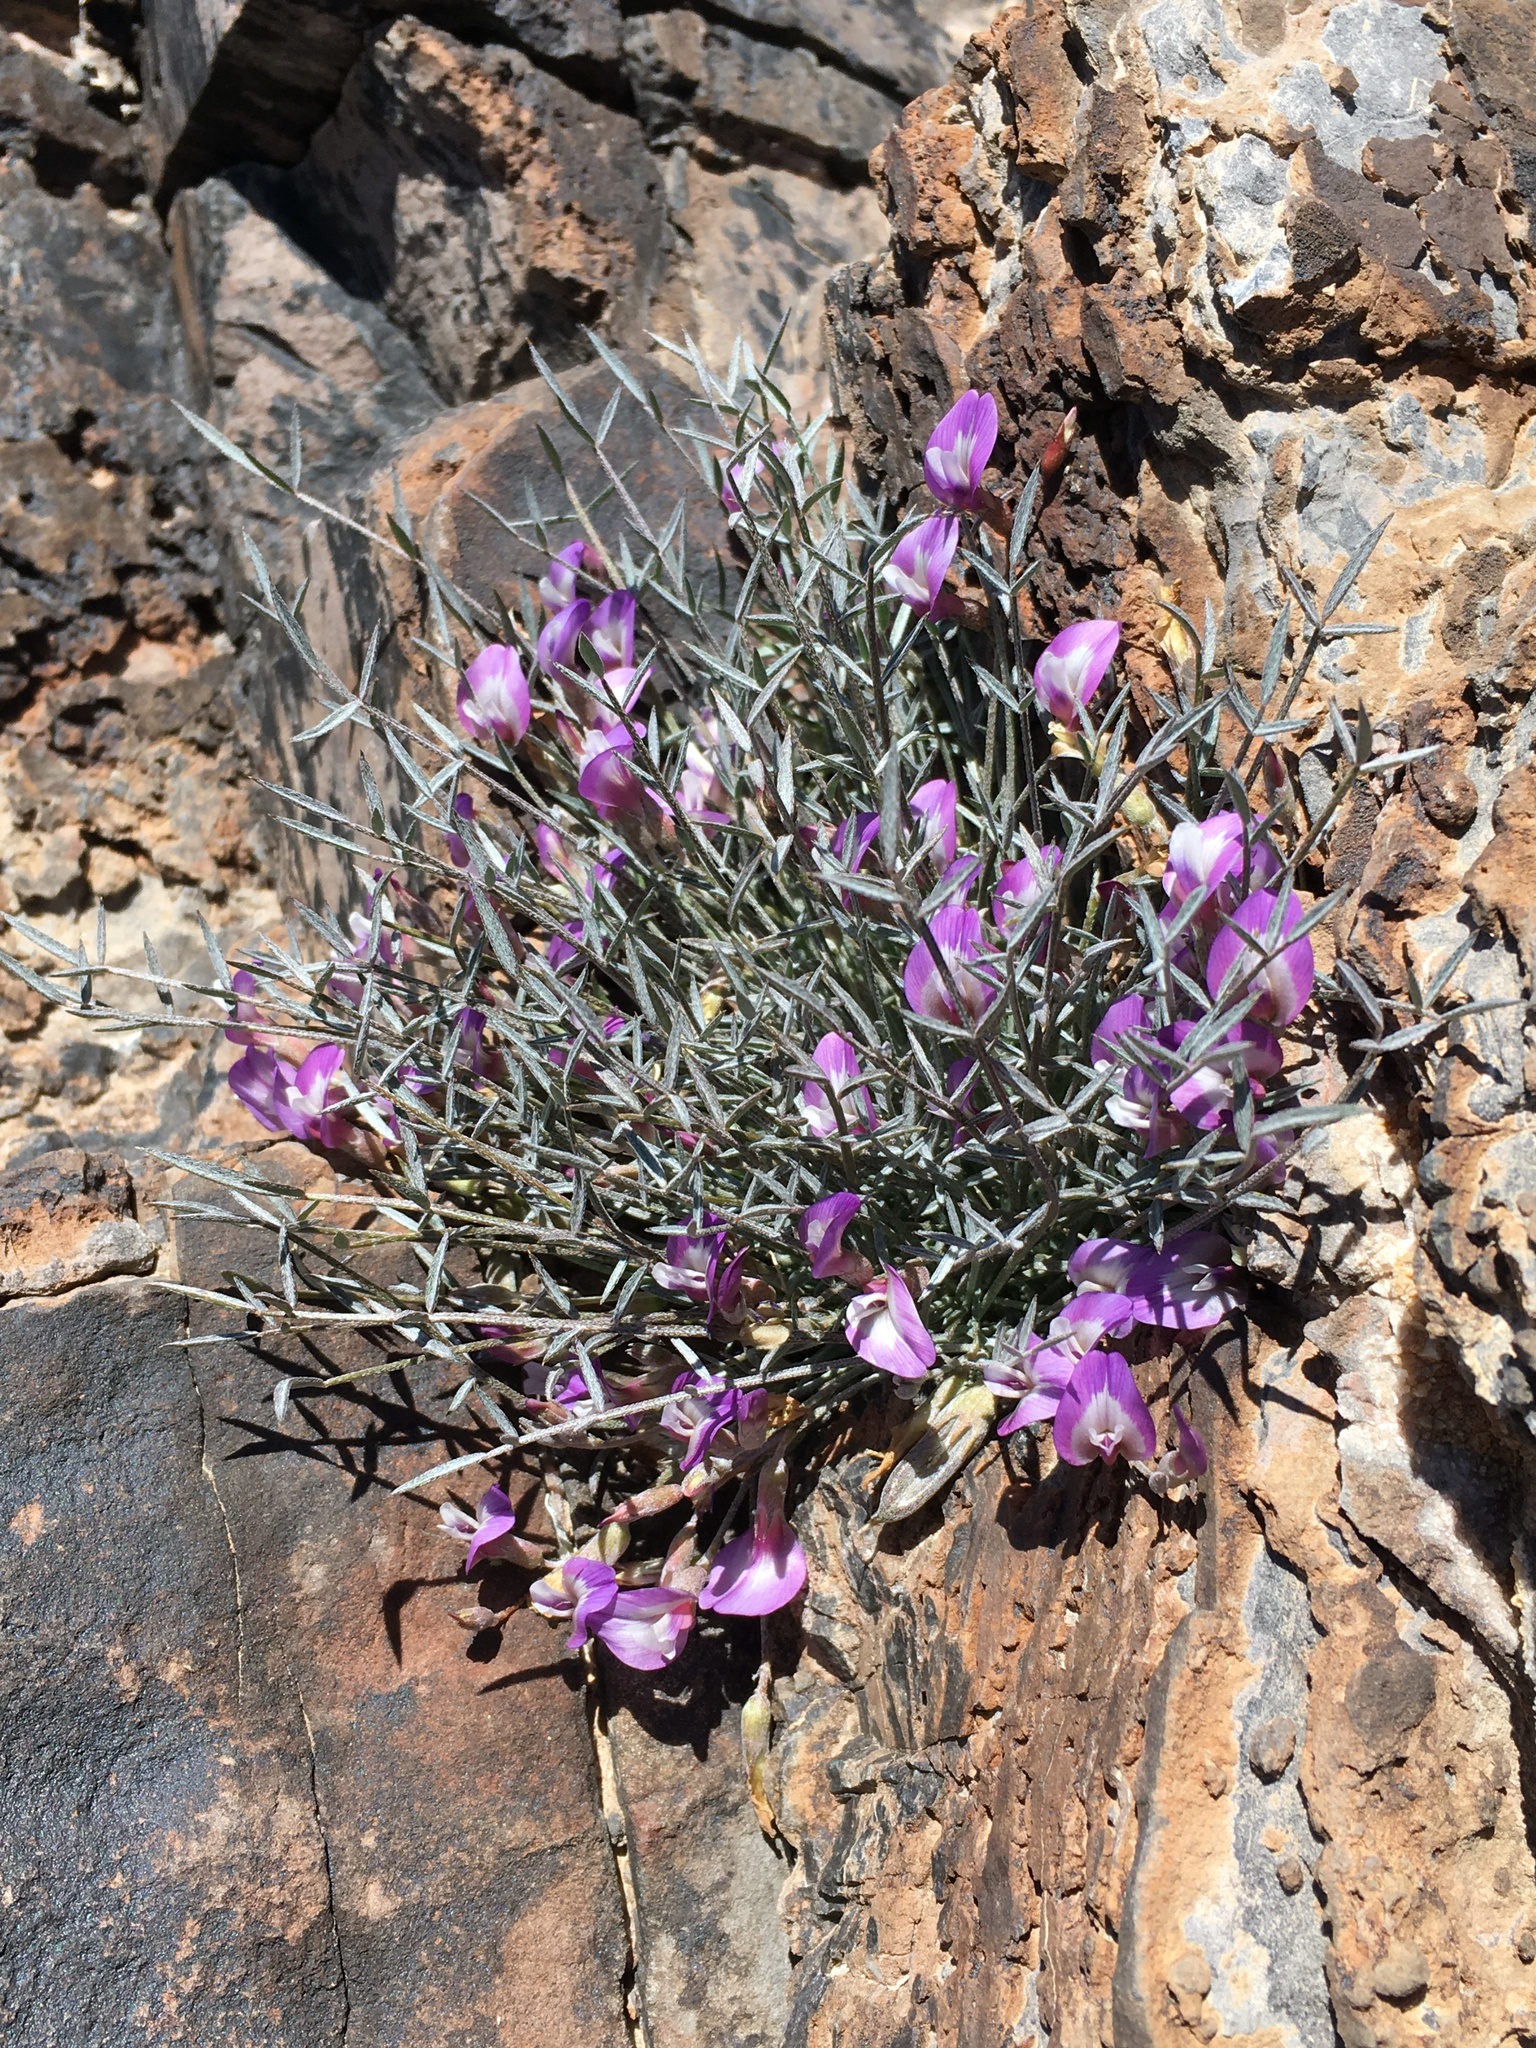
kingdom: Plantae
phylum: Tracheophyta
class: Magnoliopsida
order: Fabales
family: Fabaceae
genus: Astragalus
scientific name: Astragalus panamintensis
